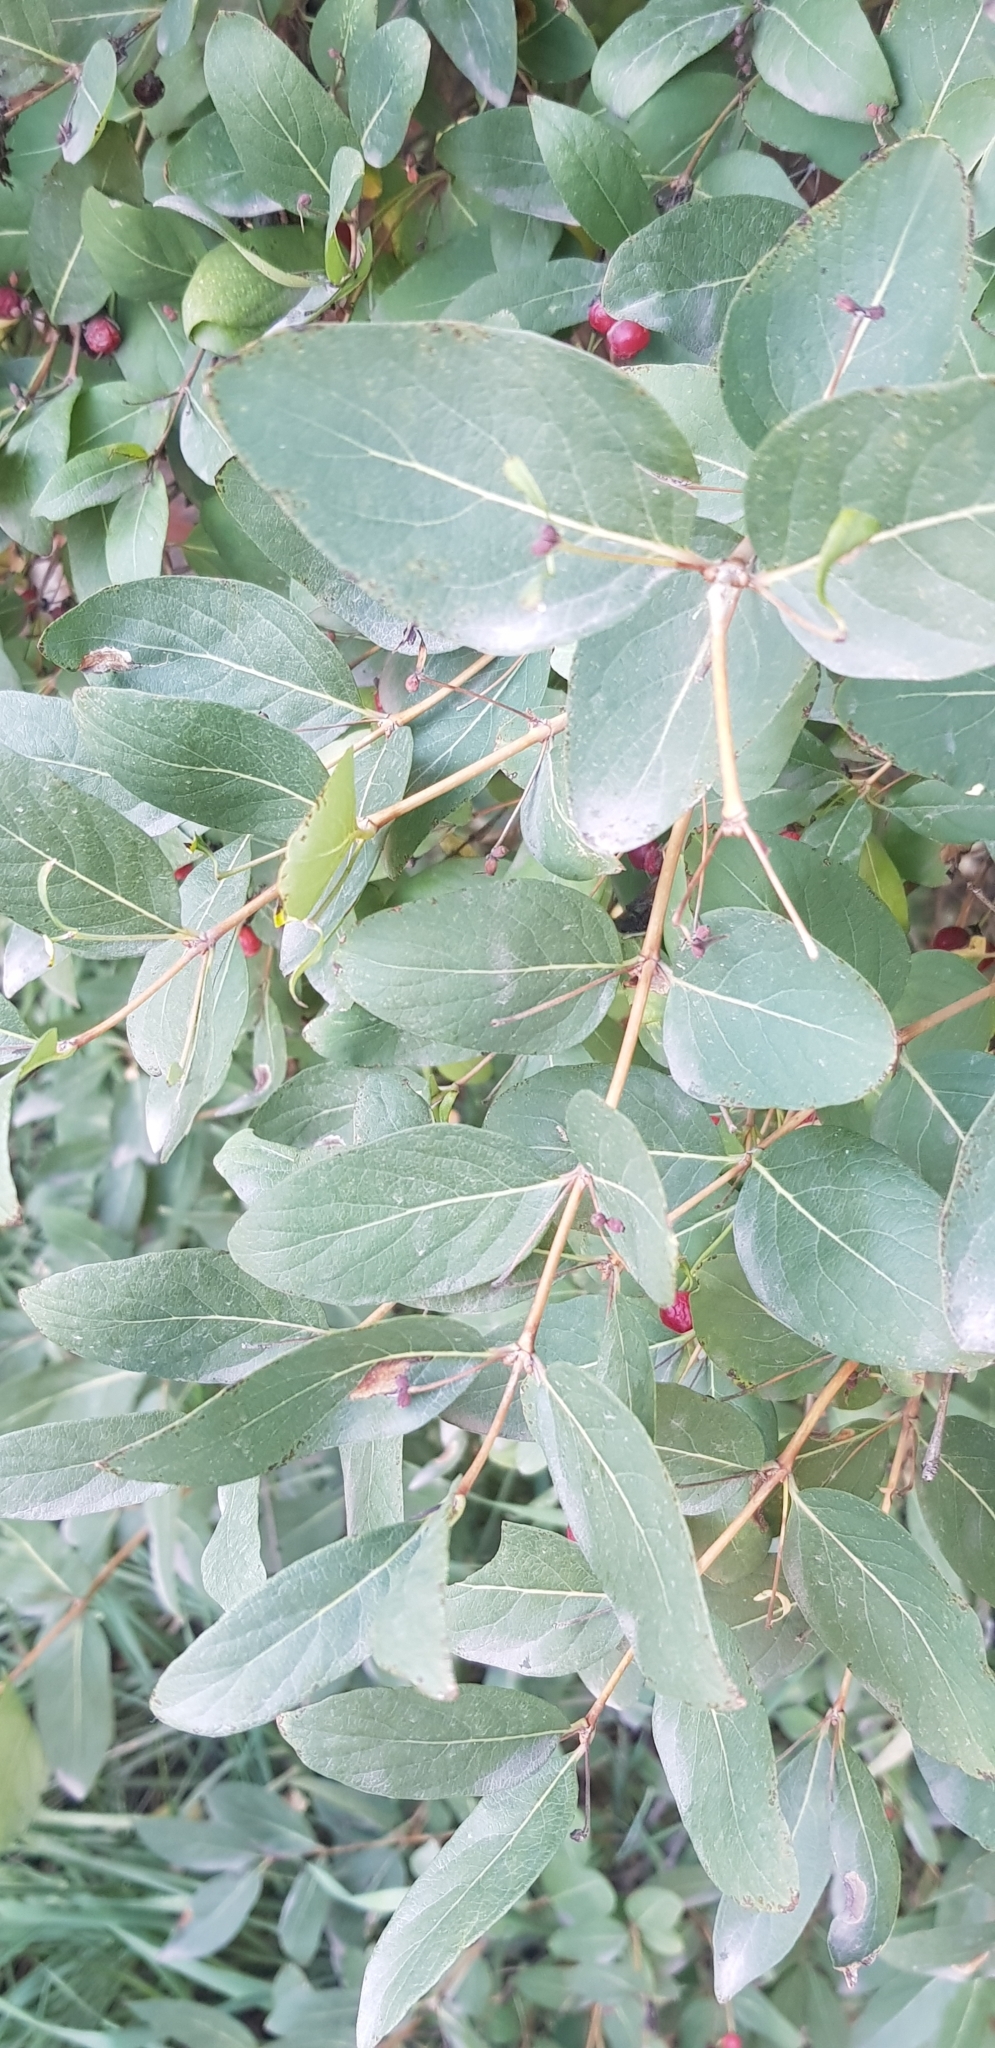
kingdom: Plantae
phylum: Tracheophyta
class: Magnoliopsida
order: Dipsacales
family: Caprifoliaceae
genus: Lonicera
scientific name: Lonicera tatarica
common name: Tatarian honeysuckle
